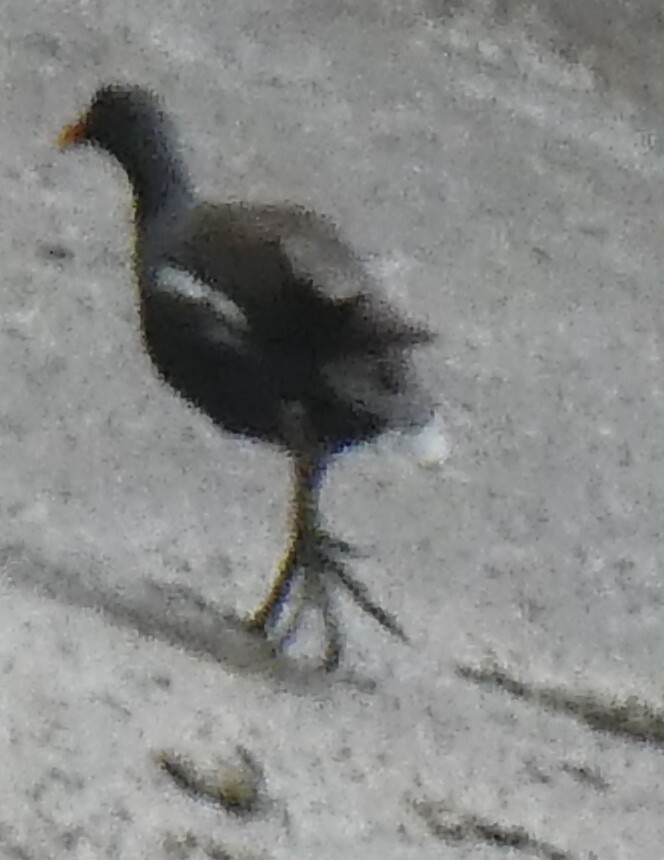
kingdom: Animalia
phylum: Chordata
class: Aves
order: Gruiformes
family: Rallidae
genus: Gallinula
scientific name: Gallinula chloropus
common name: Common moorhen
